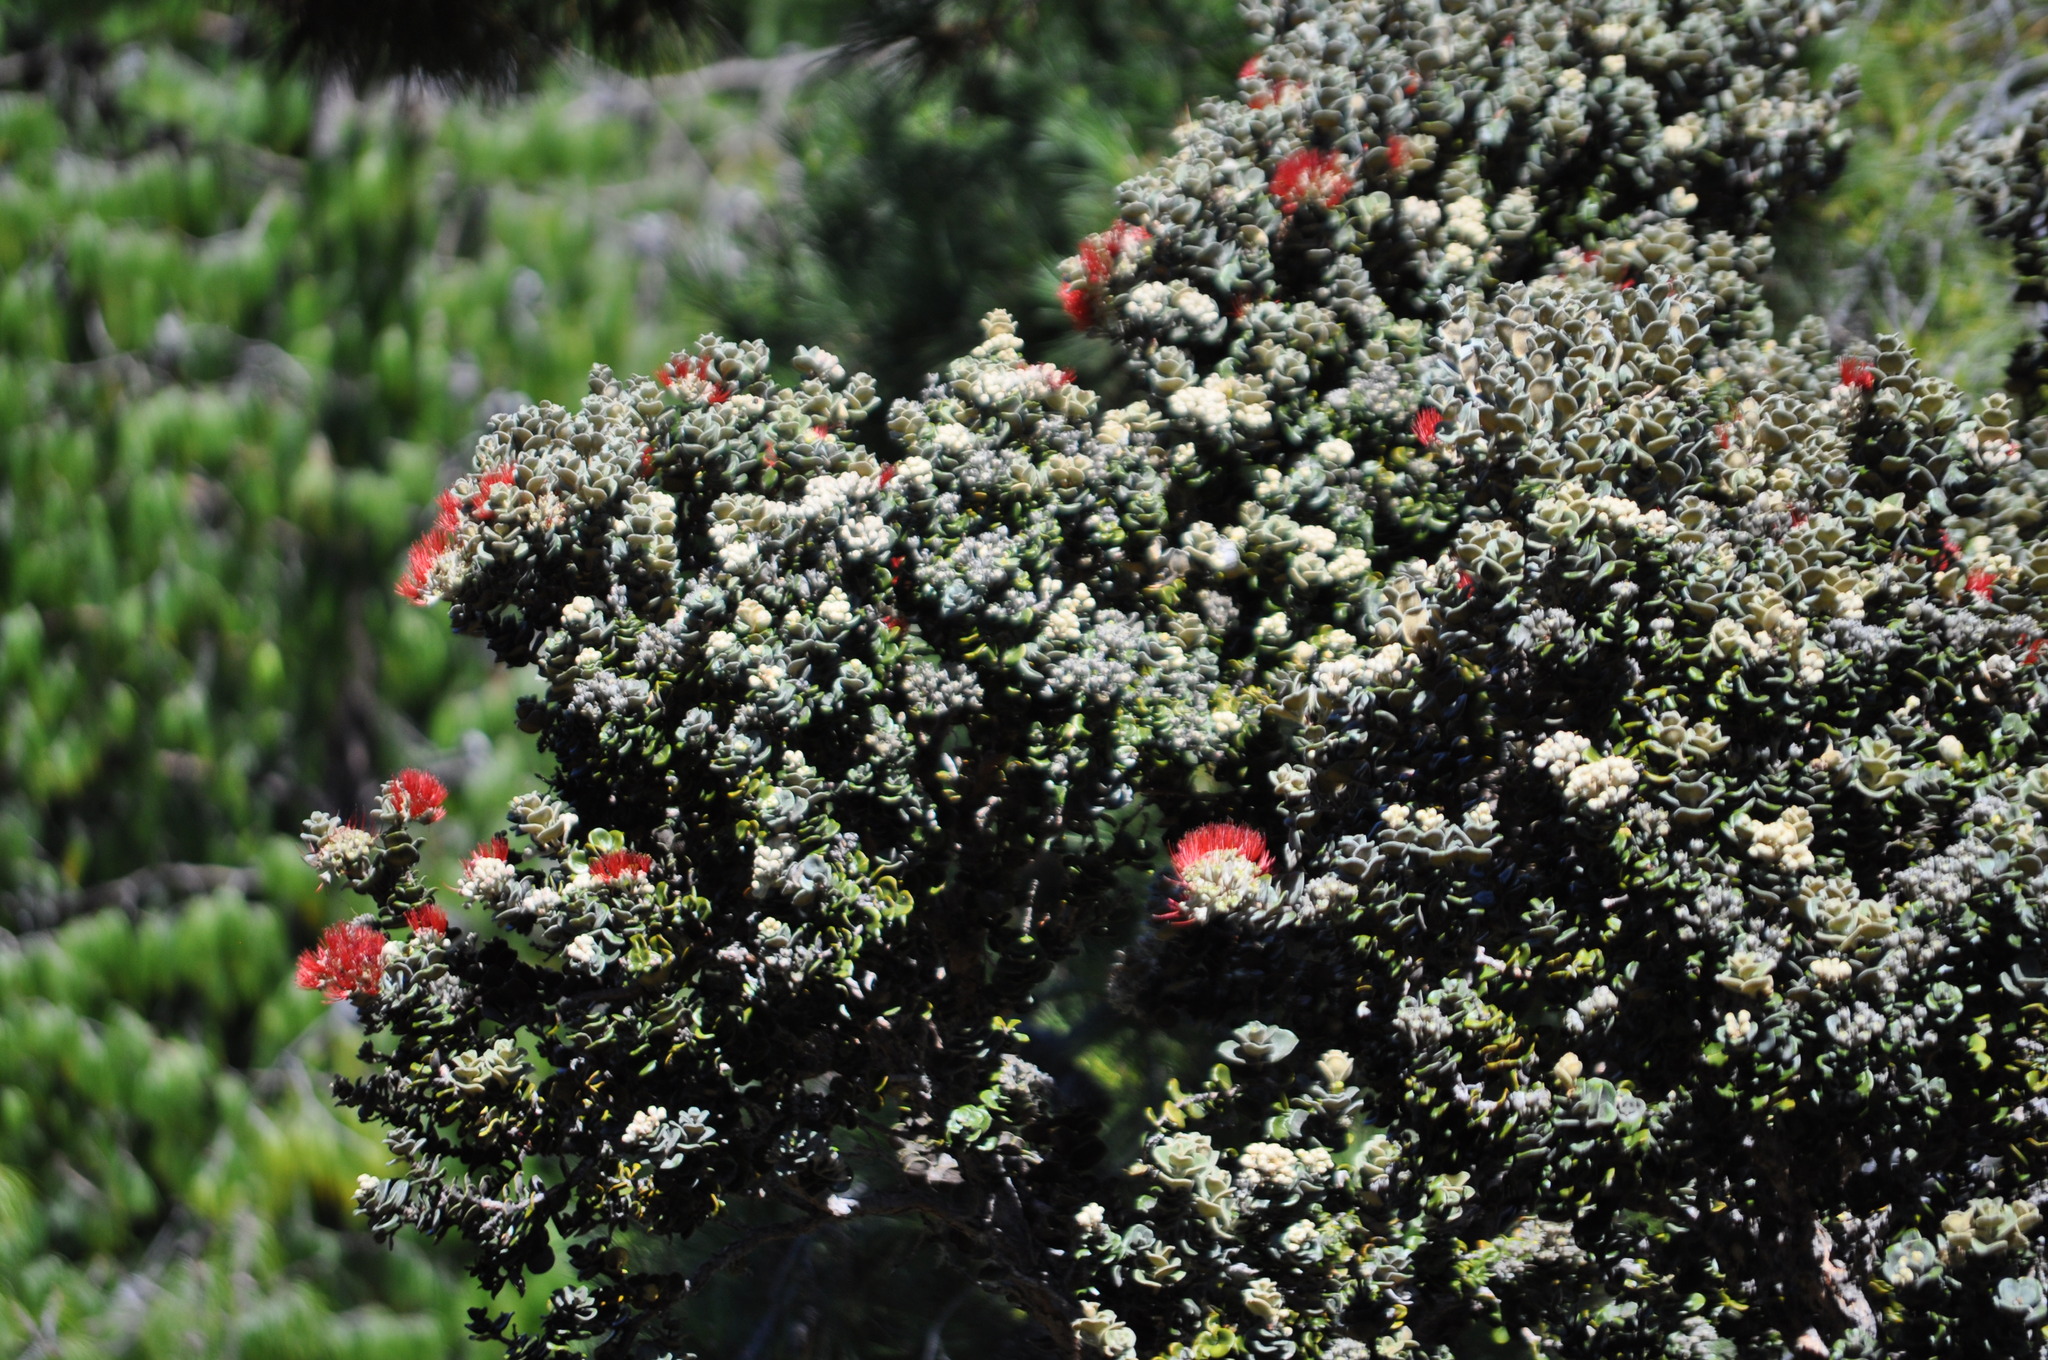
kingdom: Plantae
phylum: Tracheophyta
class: Magnoliopsida
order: Myrtales
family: Myrtaceae
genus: Metrosideros
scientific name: Metrosideros polymorpha
